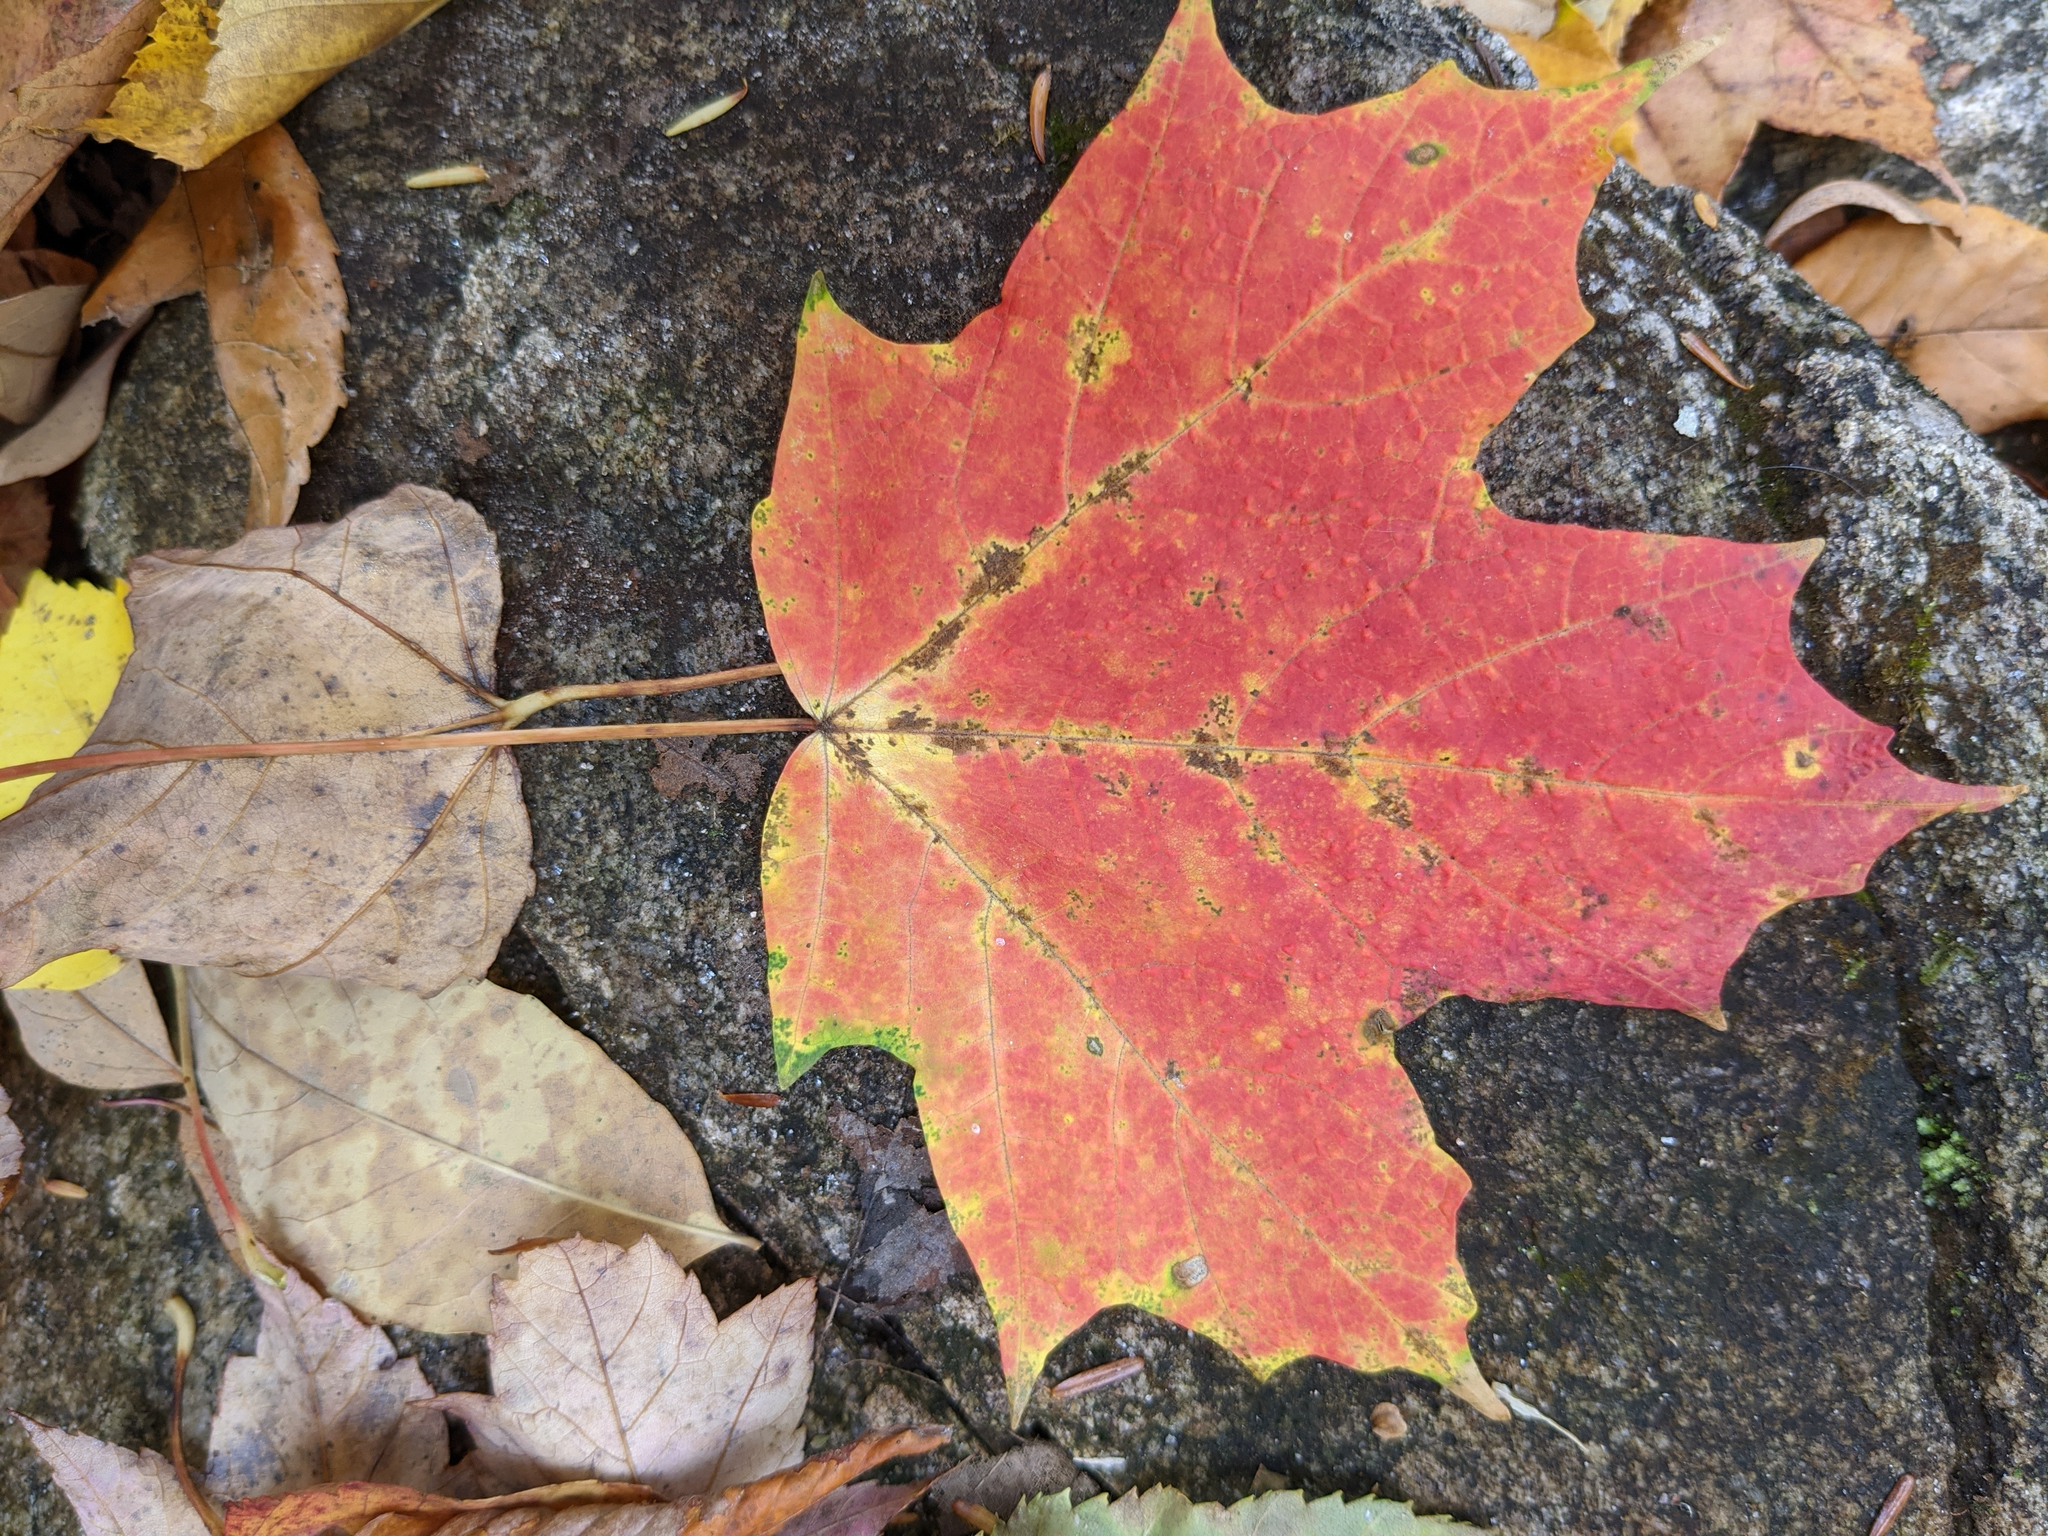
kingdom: Plantae
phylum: Tracheophyta
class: Magnoliopsida
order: Sapindales
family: Sapindaceae
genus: Acer
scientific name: Acer saccharum
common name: Sugar maple
